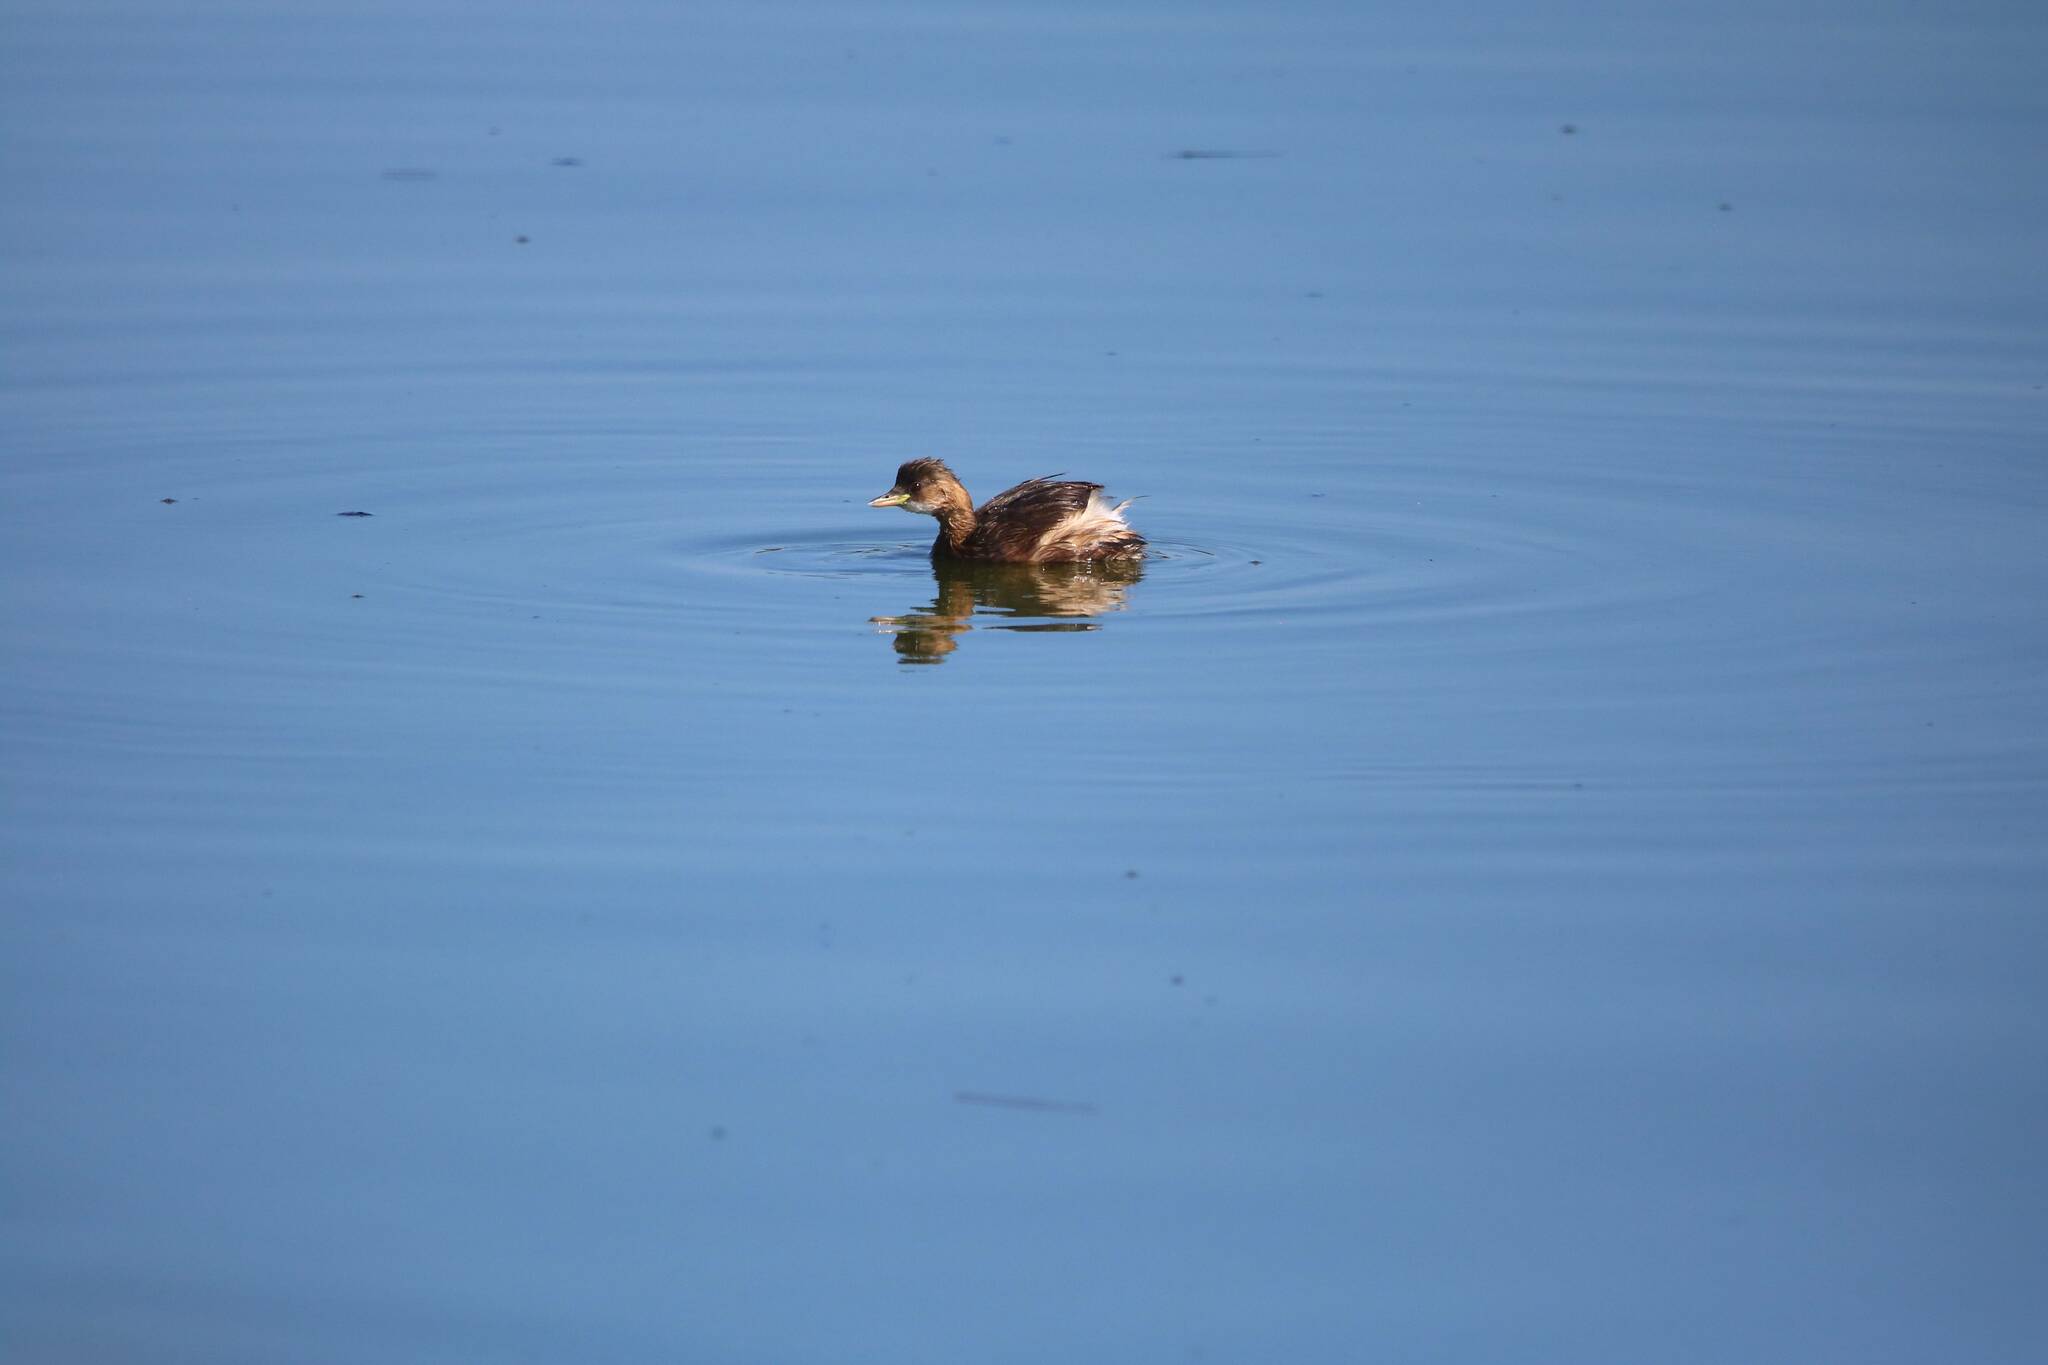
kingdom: Animalia
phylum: Chordata
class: Aves
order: Podicipediformes
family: Podicipedidae
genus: Tachybaptus
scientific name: Tachybaptus ruficollis
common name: Little grebe
